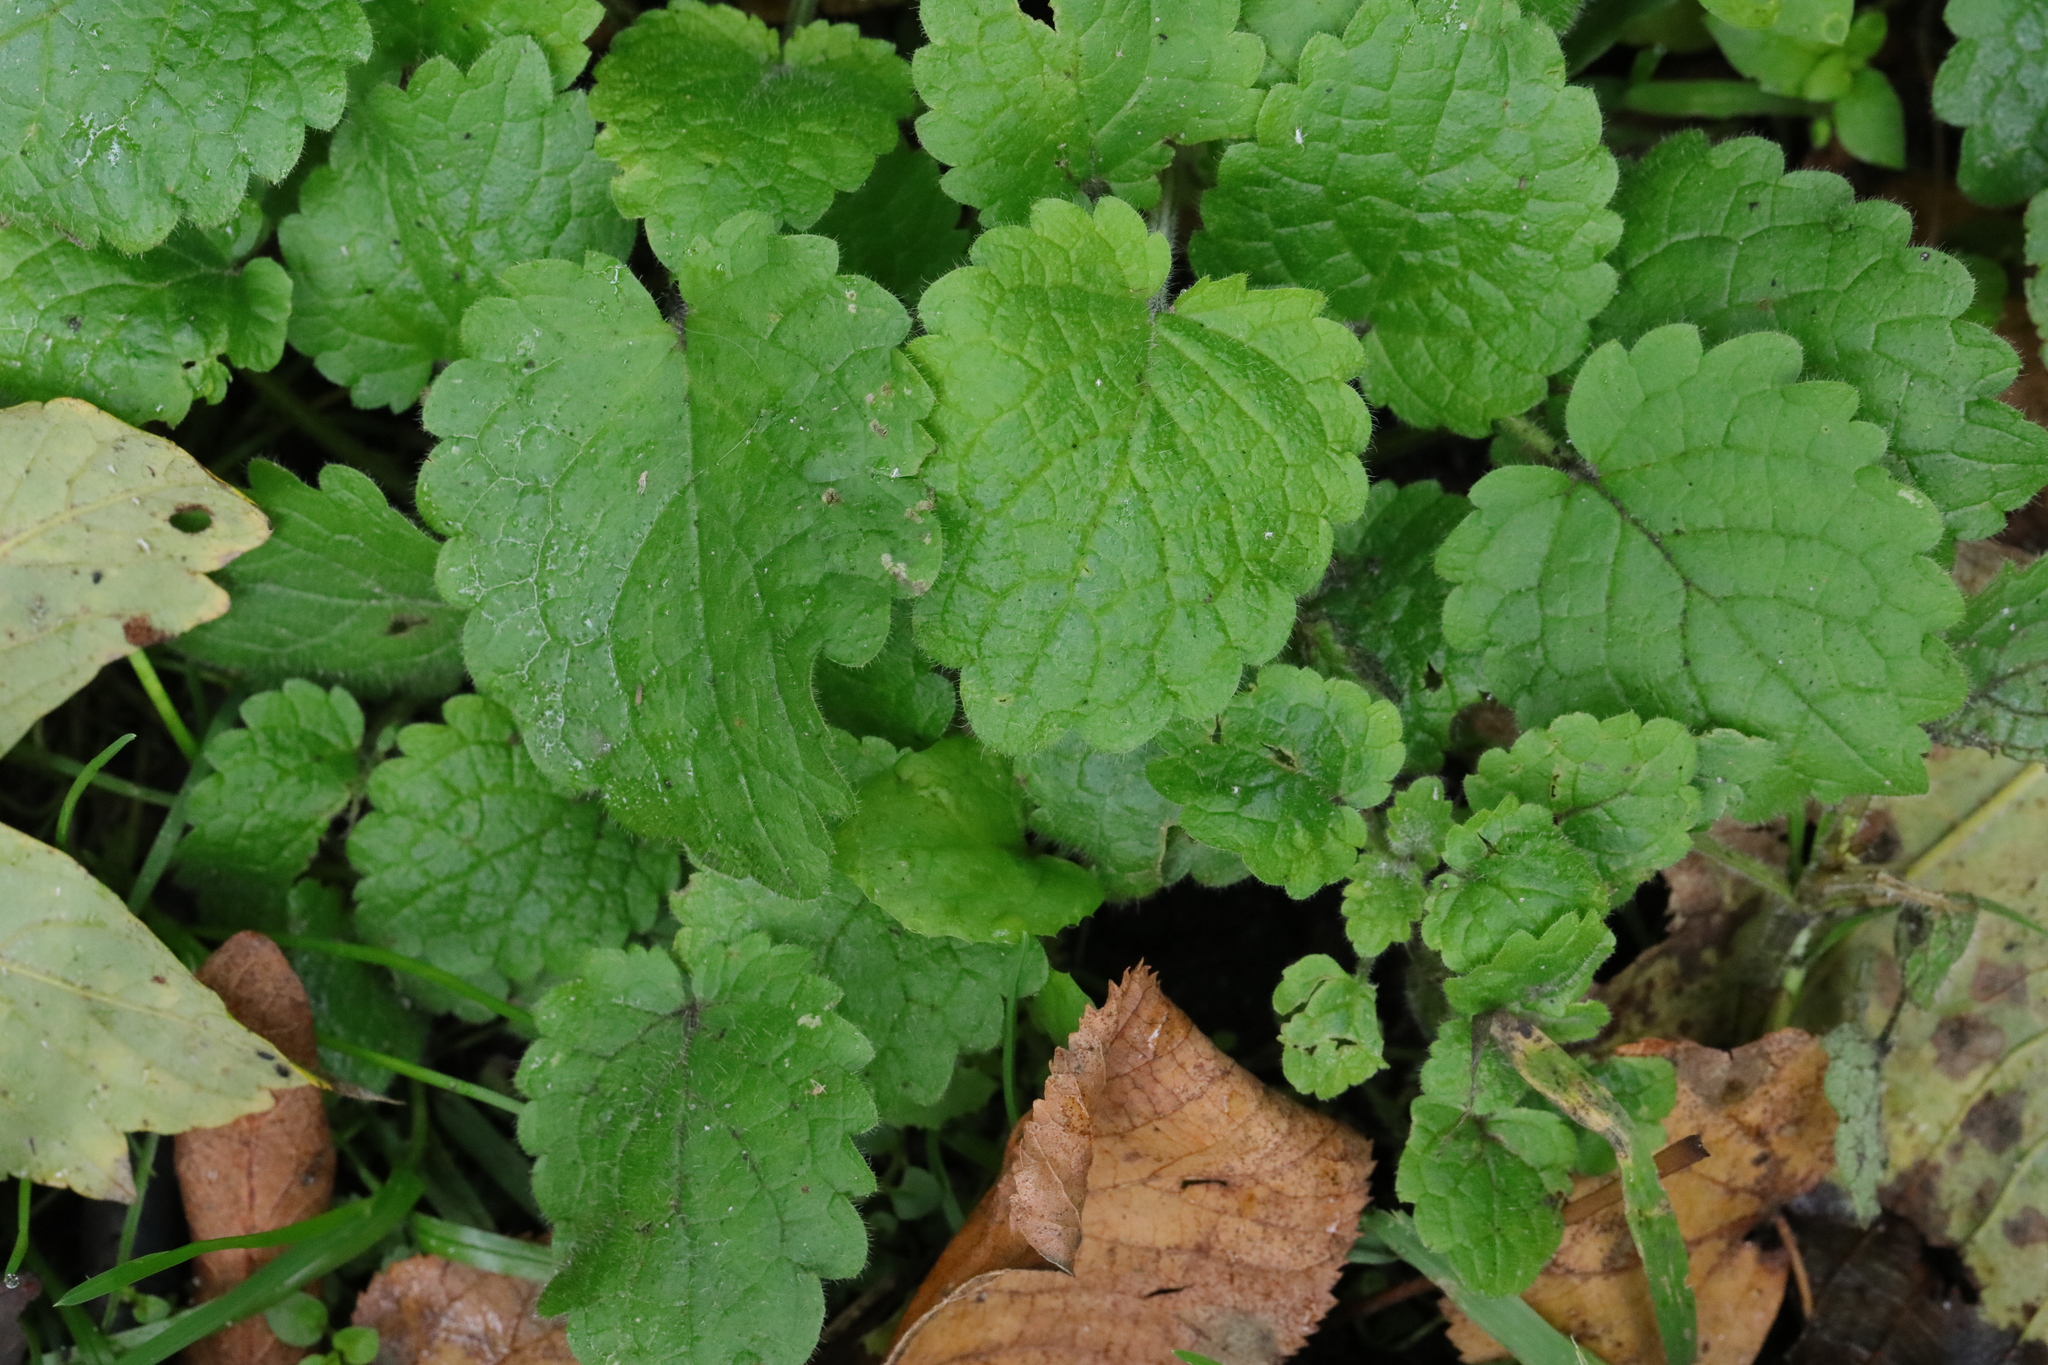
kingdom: Plantae
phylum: Tracheophyta
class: Magnoliopsida
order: Lamiales
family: Lamiaceae
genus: Glechoma
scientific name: Glechoma hederacea
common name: Ground ivy
